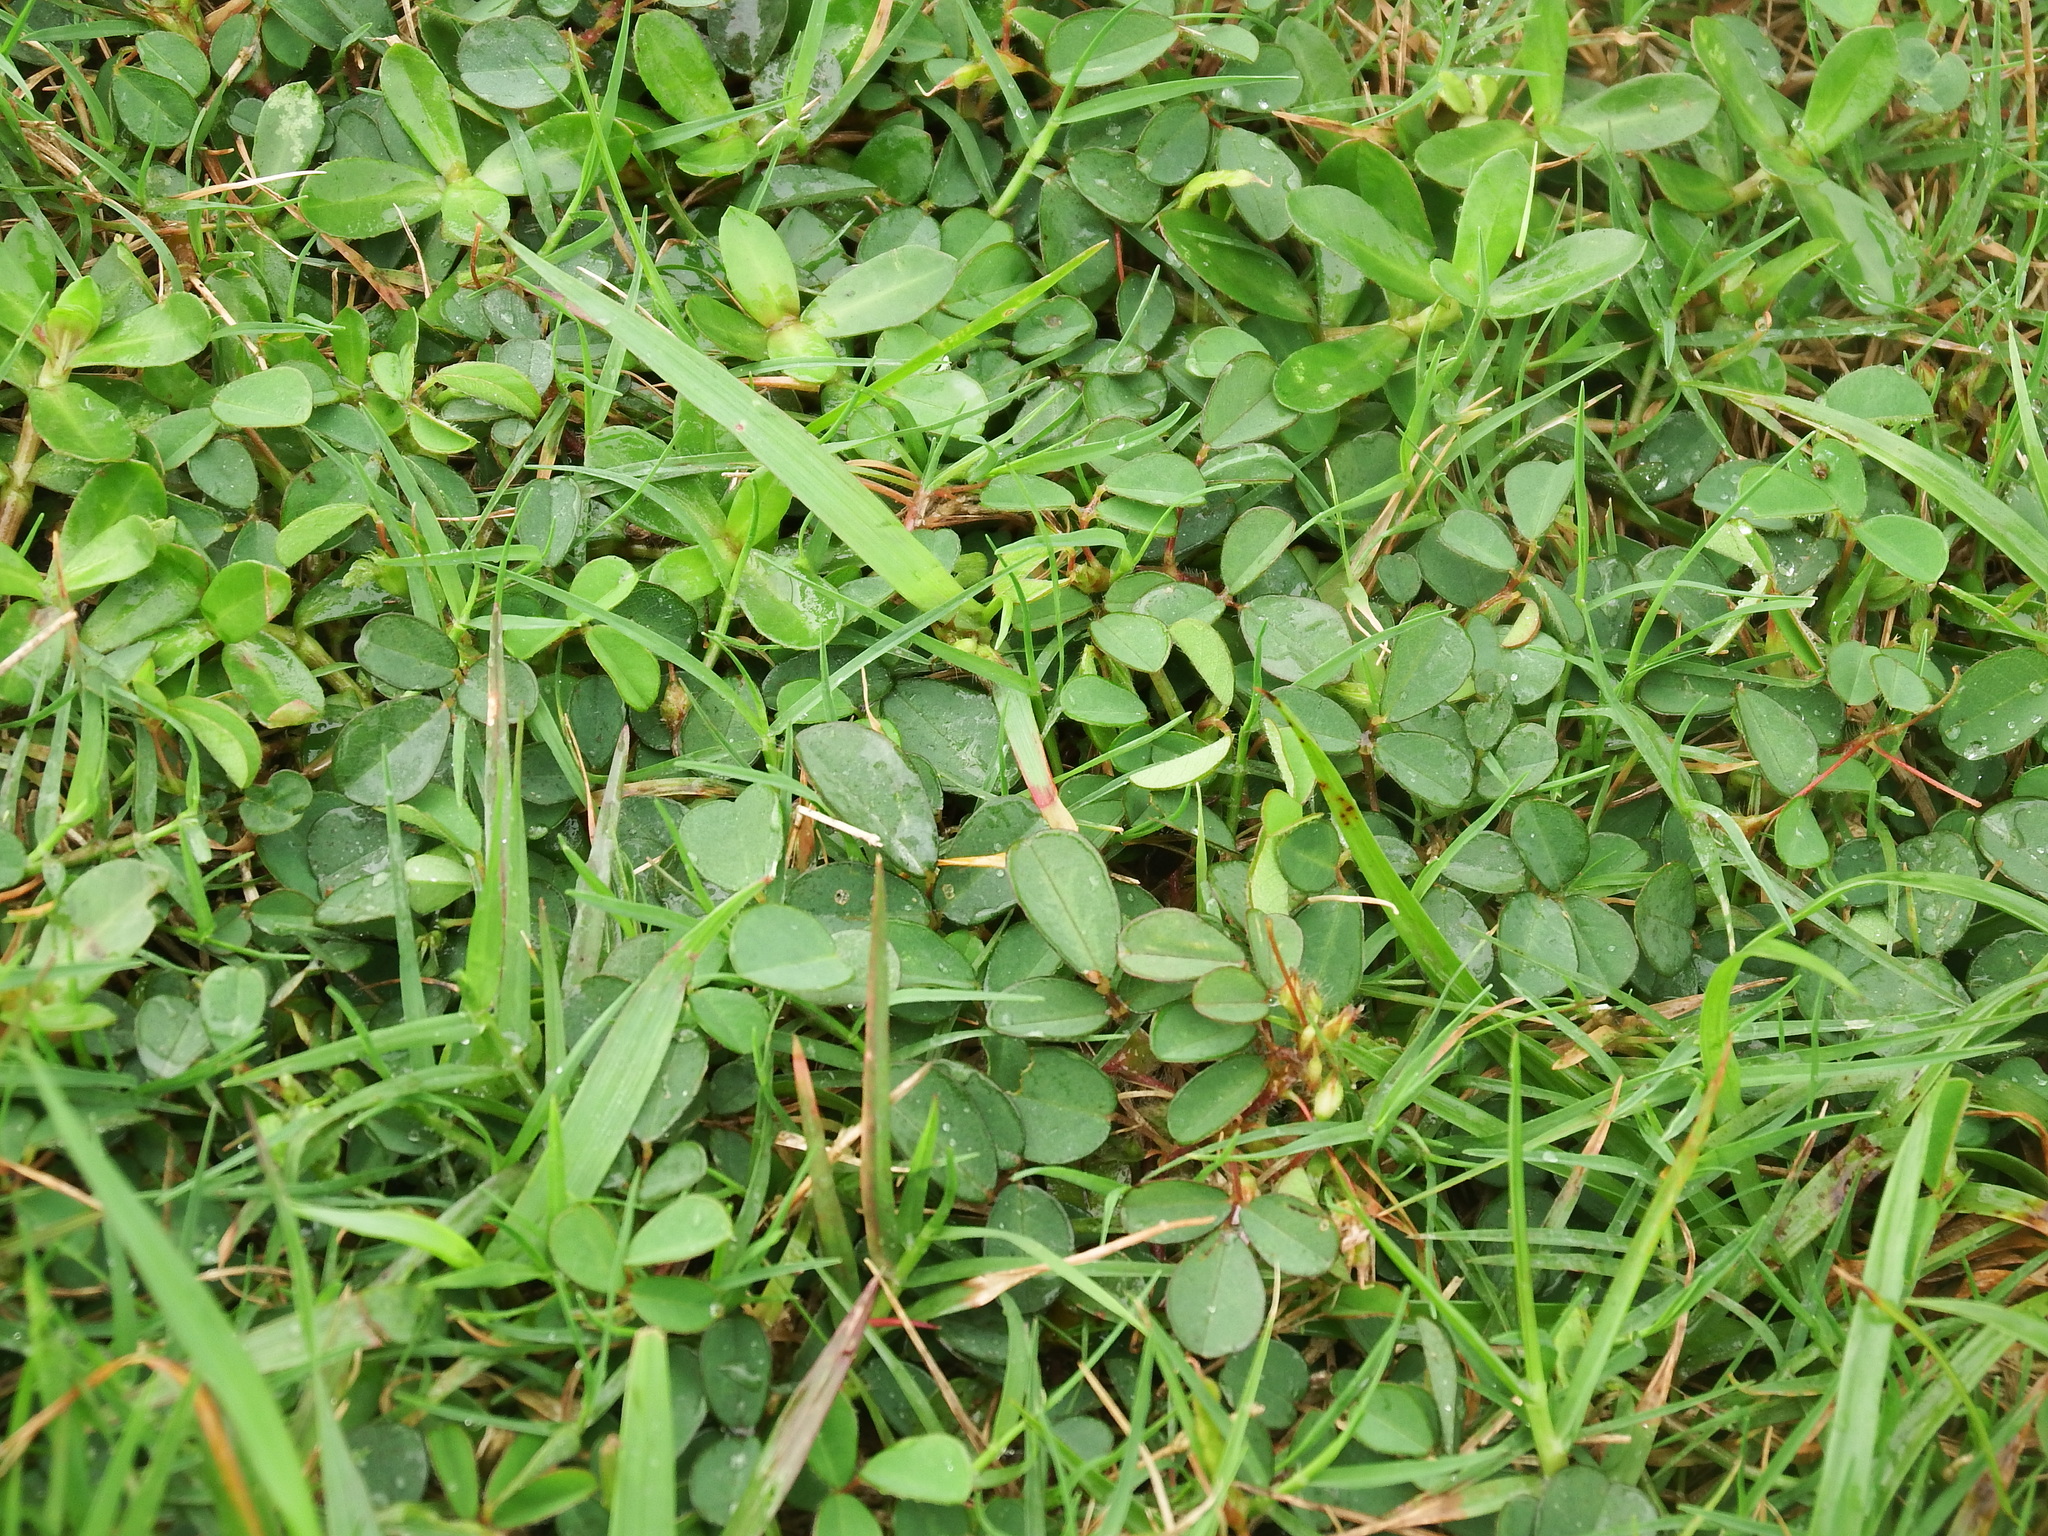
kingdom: Plantae
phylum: Tracheophyta
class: Magnoliopsida
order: Fabales
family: Fabaceae
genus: Grona
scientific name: Grona triflora
